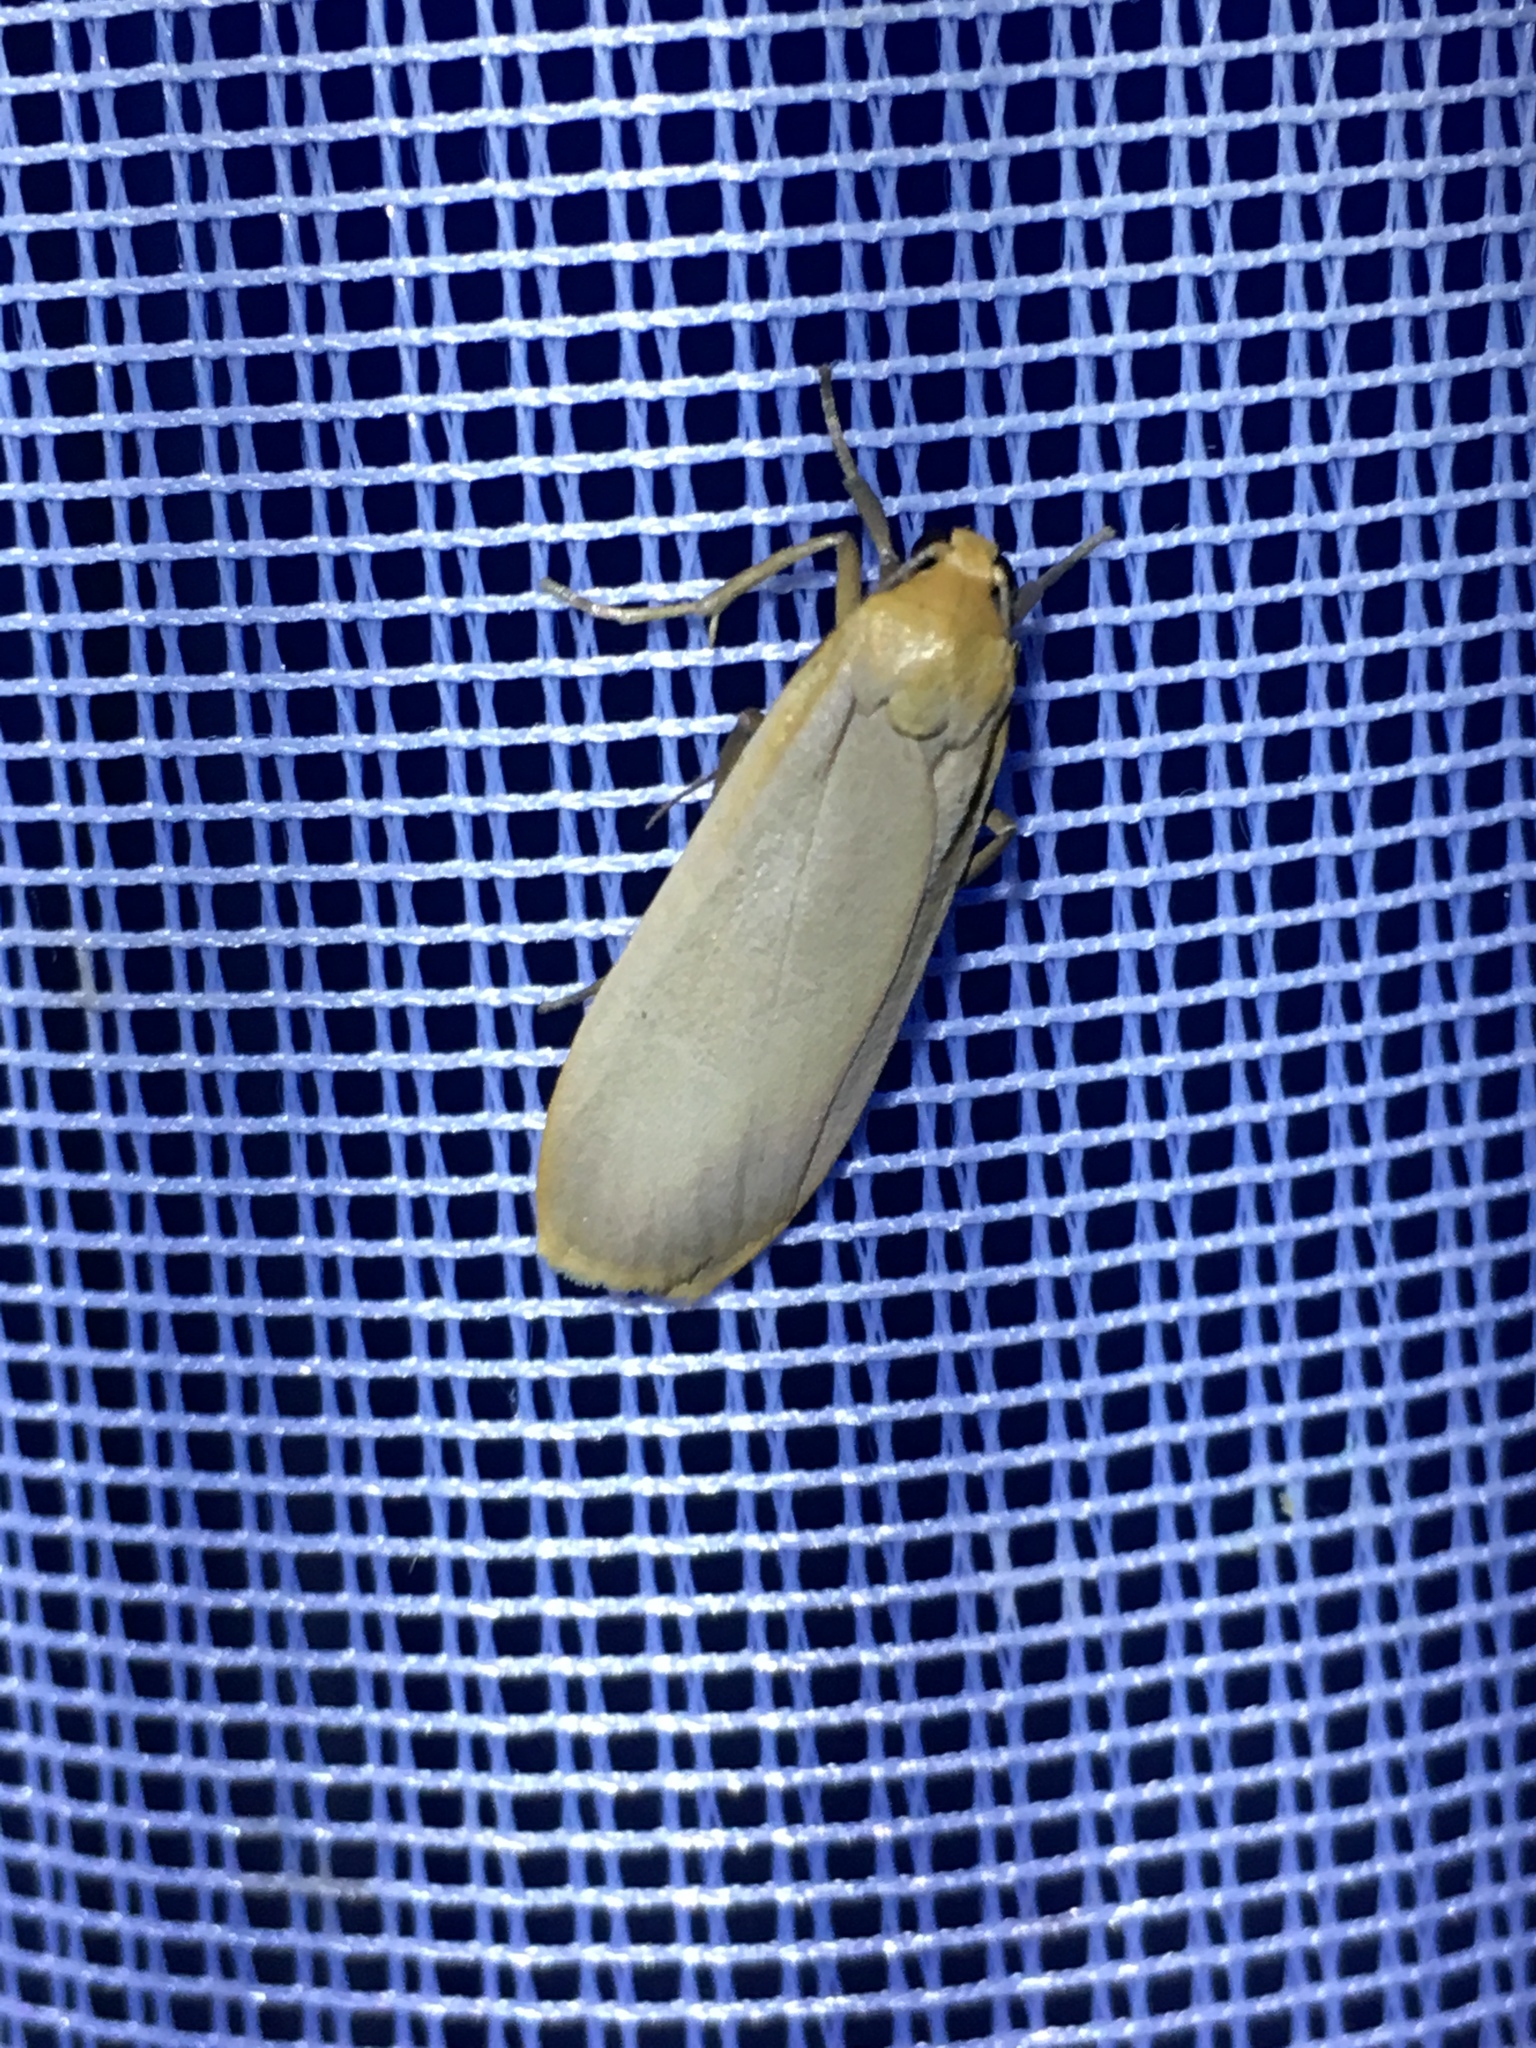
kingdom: Animalia
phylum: Arthropoda
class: Insecta
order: Lepidoptera
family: Erebidae
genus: Katha
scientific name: Katha depressa
